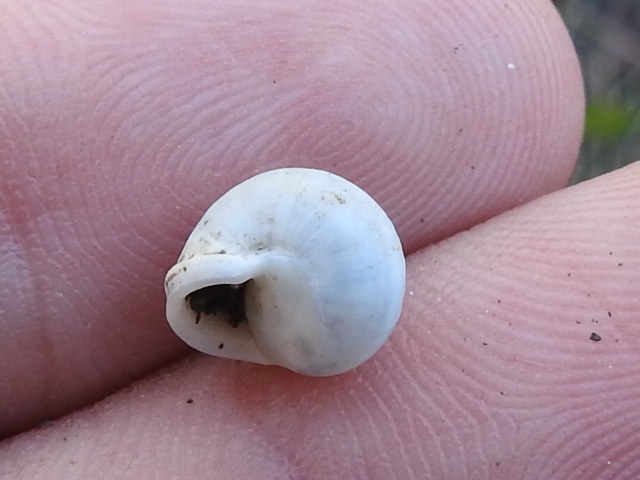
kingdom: Animalia
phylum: Mollusca
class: Gastropoda
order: Cycloneritida
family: Helicinidae
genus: Helicina
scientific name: Helicina orbiculata
